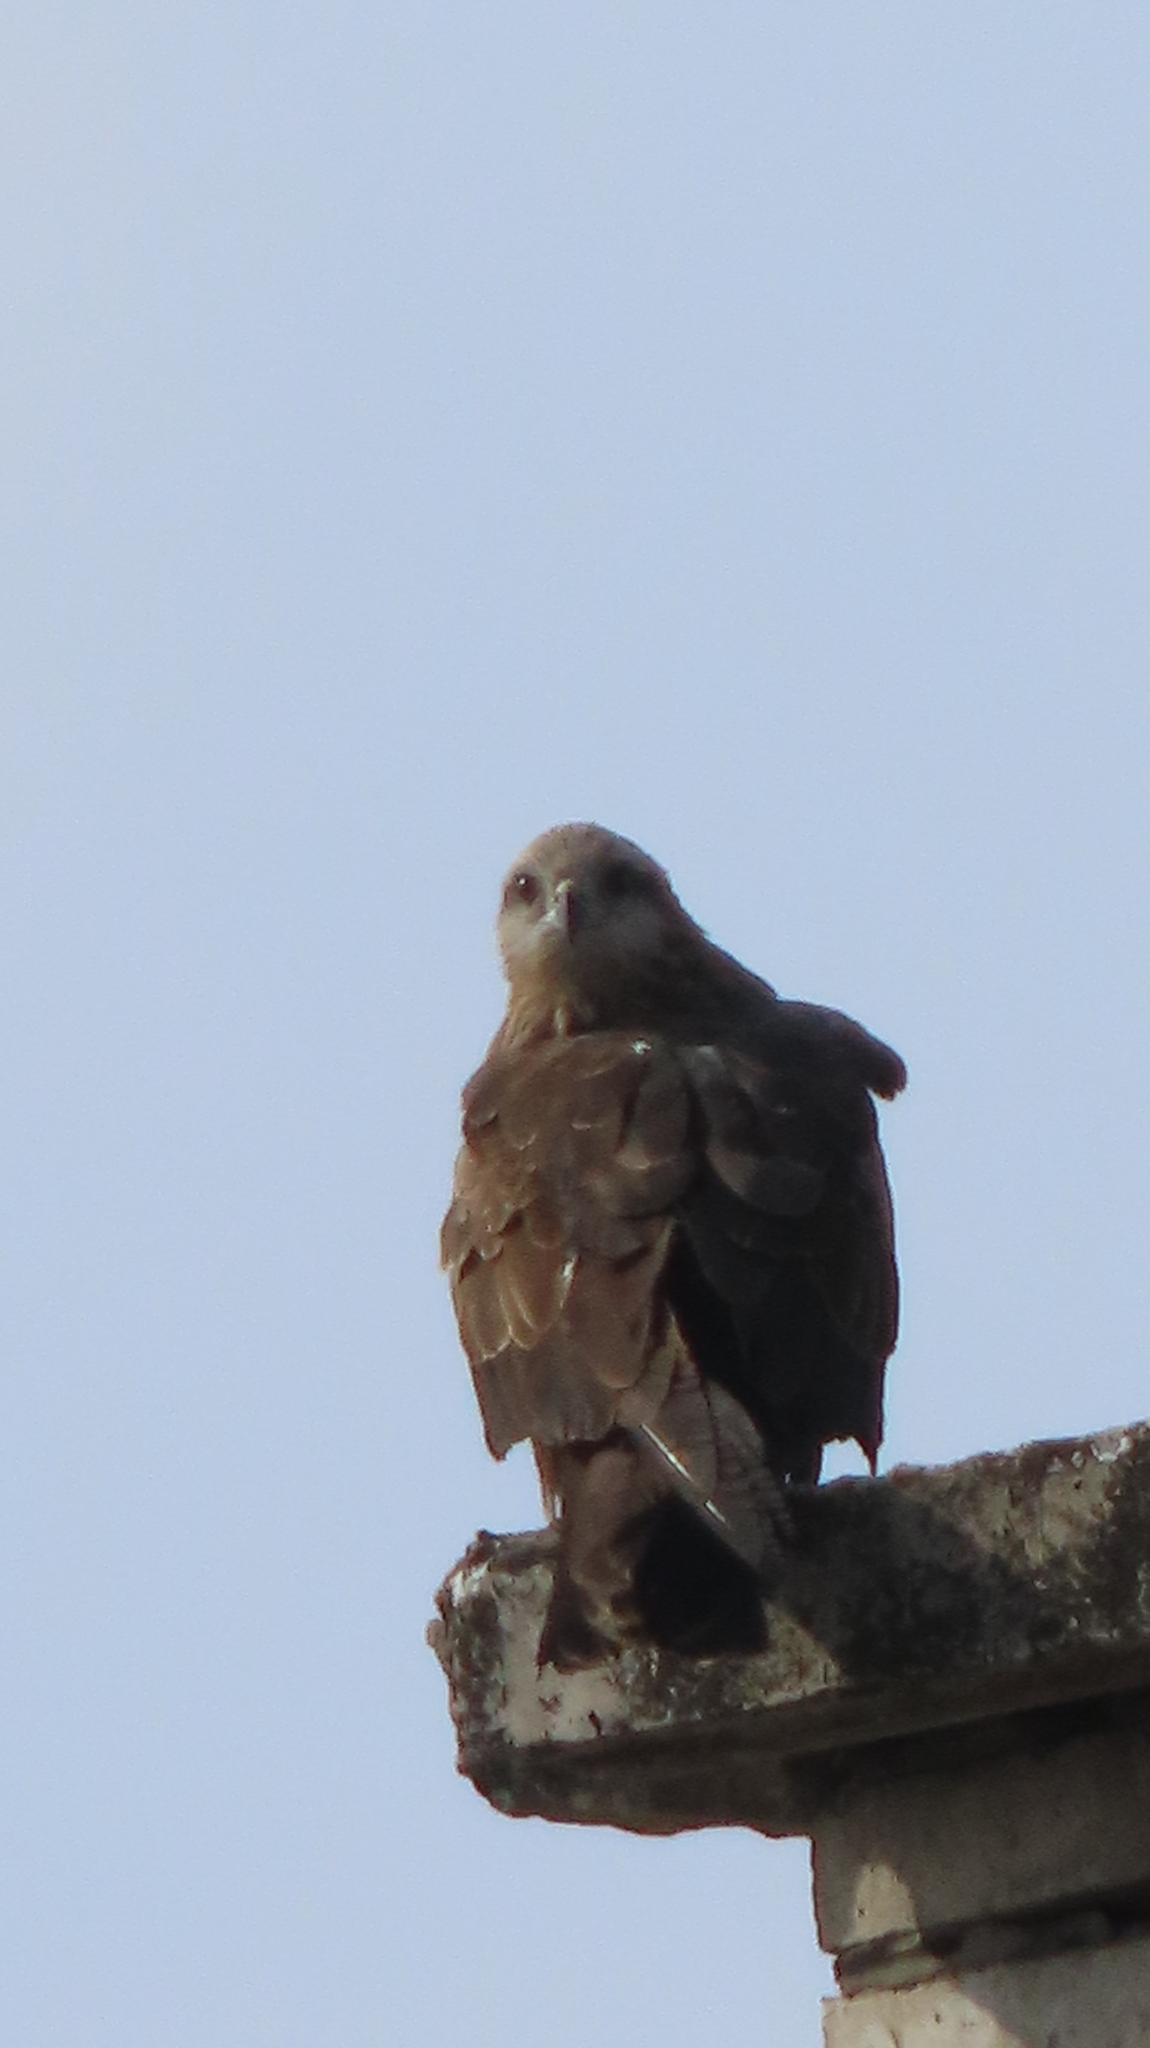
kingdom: Animalia
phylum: Chordata
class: Aves
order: Accipitriformes
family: Accipitridae
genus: Milvus
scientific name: Milvus migrans
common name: Black kite
